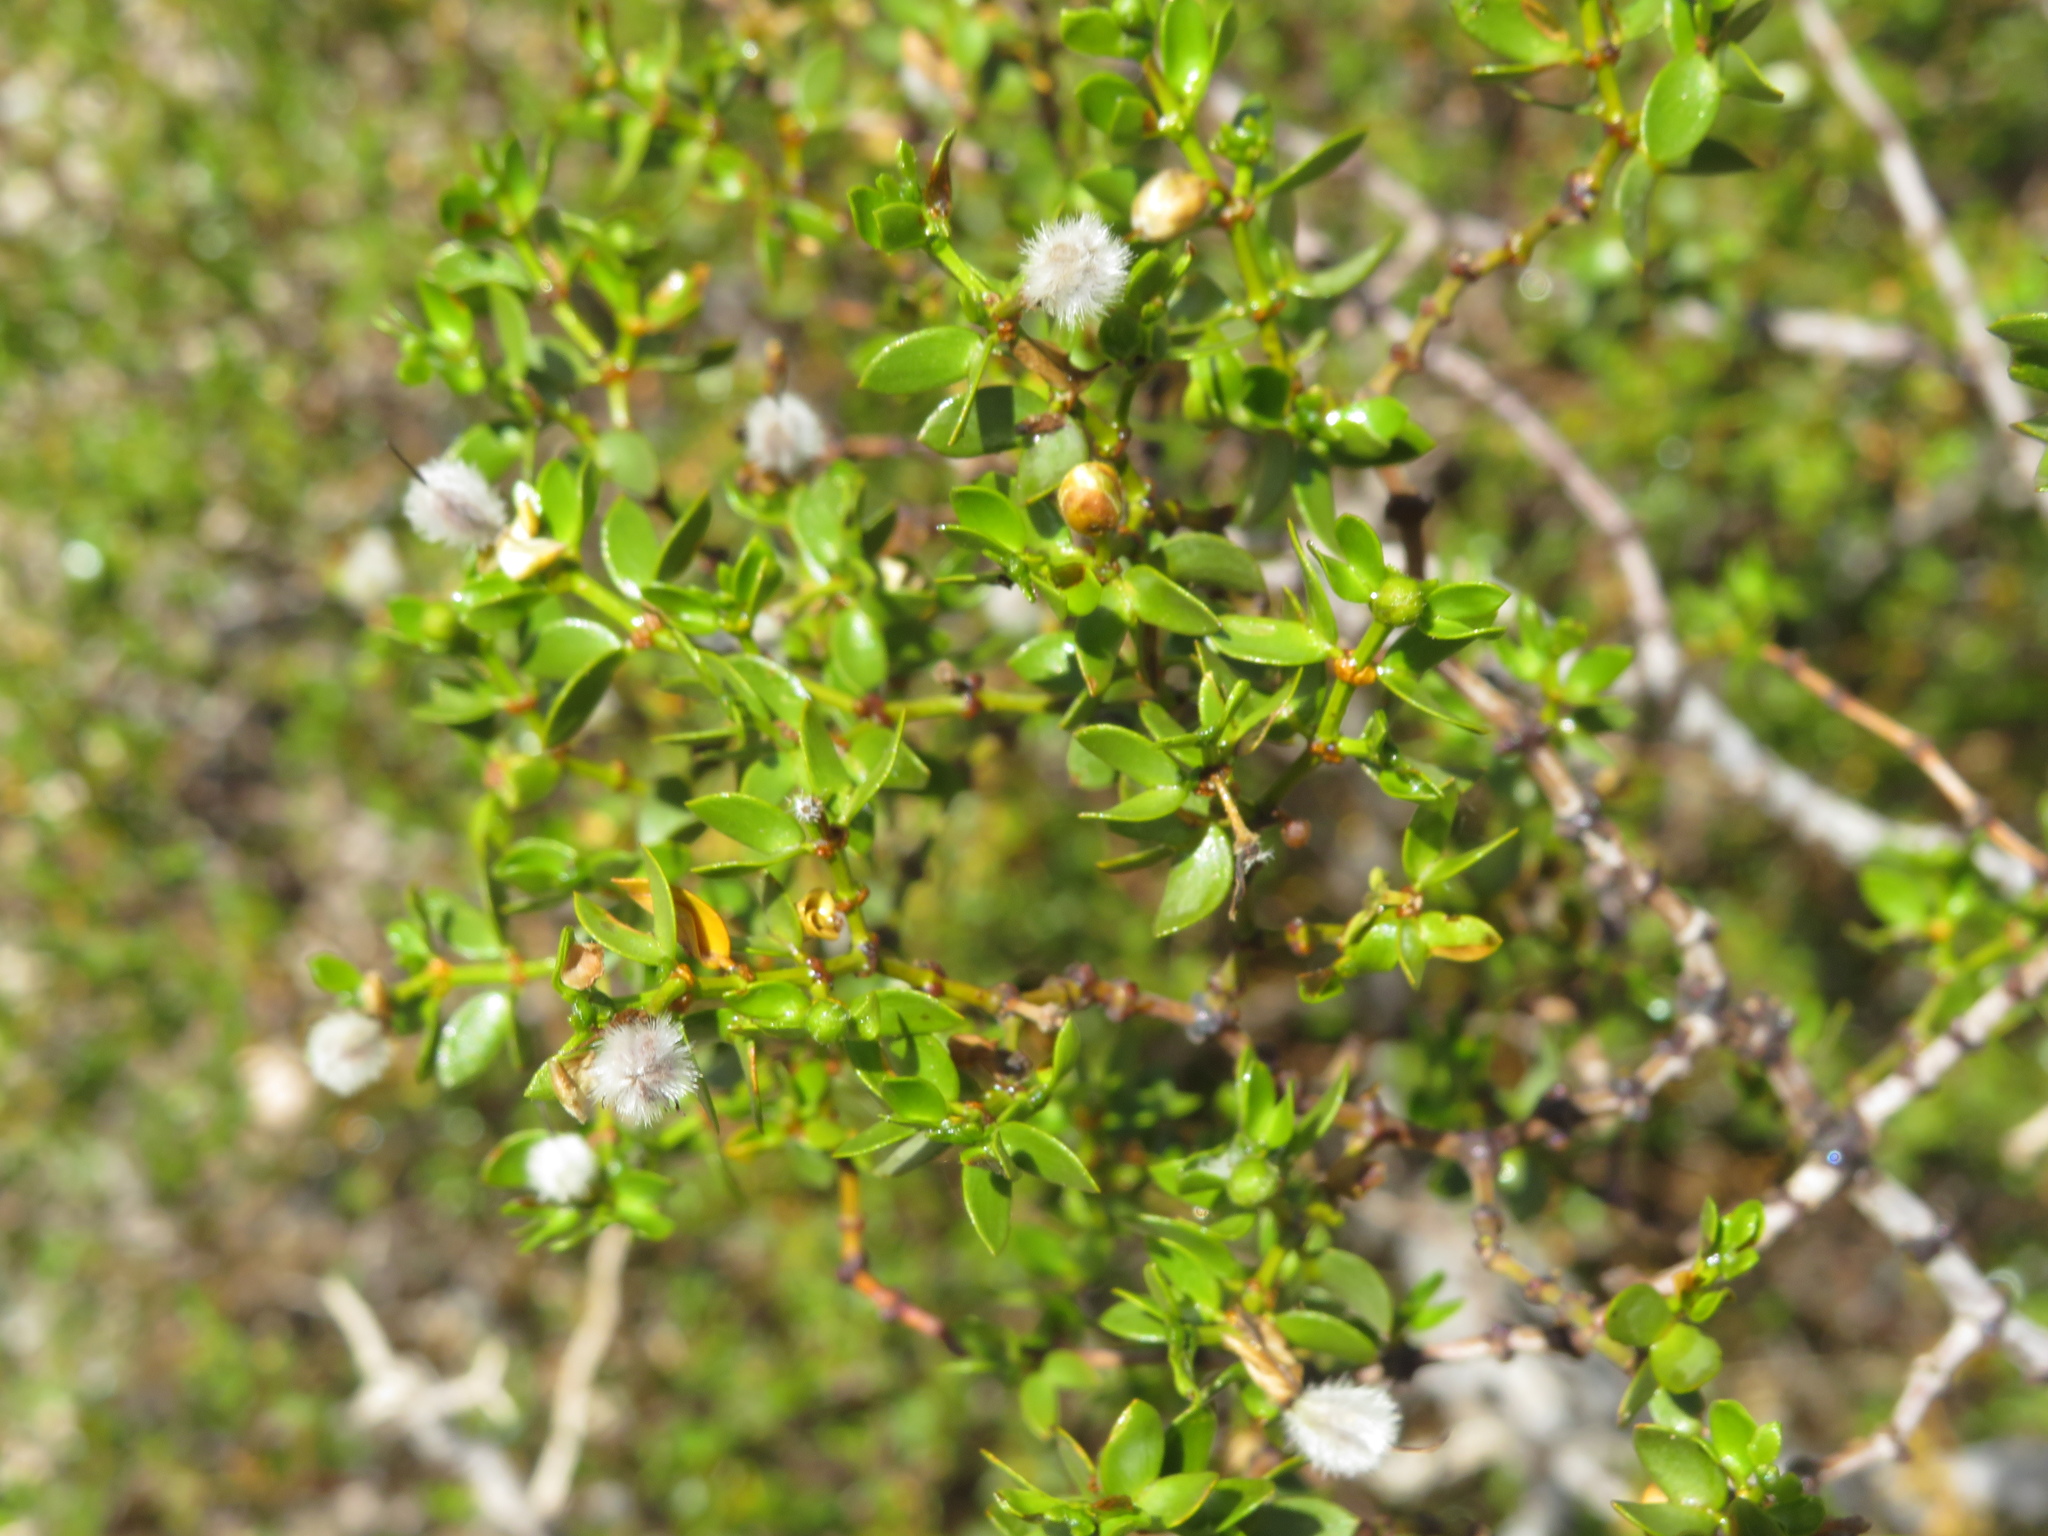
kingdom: Plantae
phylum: Tracheophyta
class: Magnoliopsida
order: Zygophyllales
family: Zygophyllaceae
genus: Larrea
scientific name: Larrea divaricata
